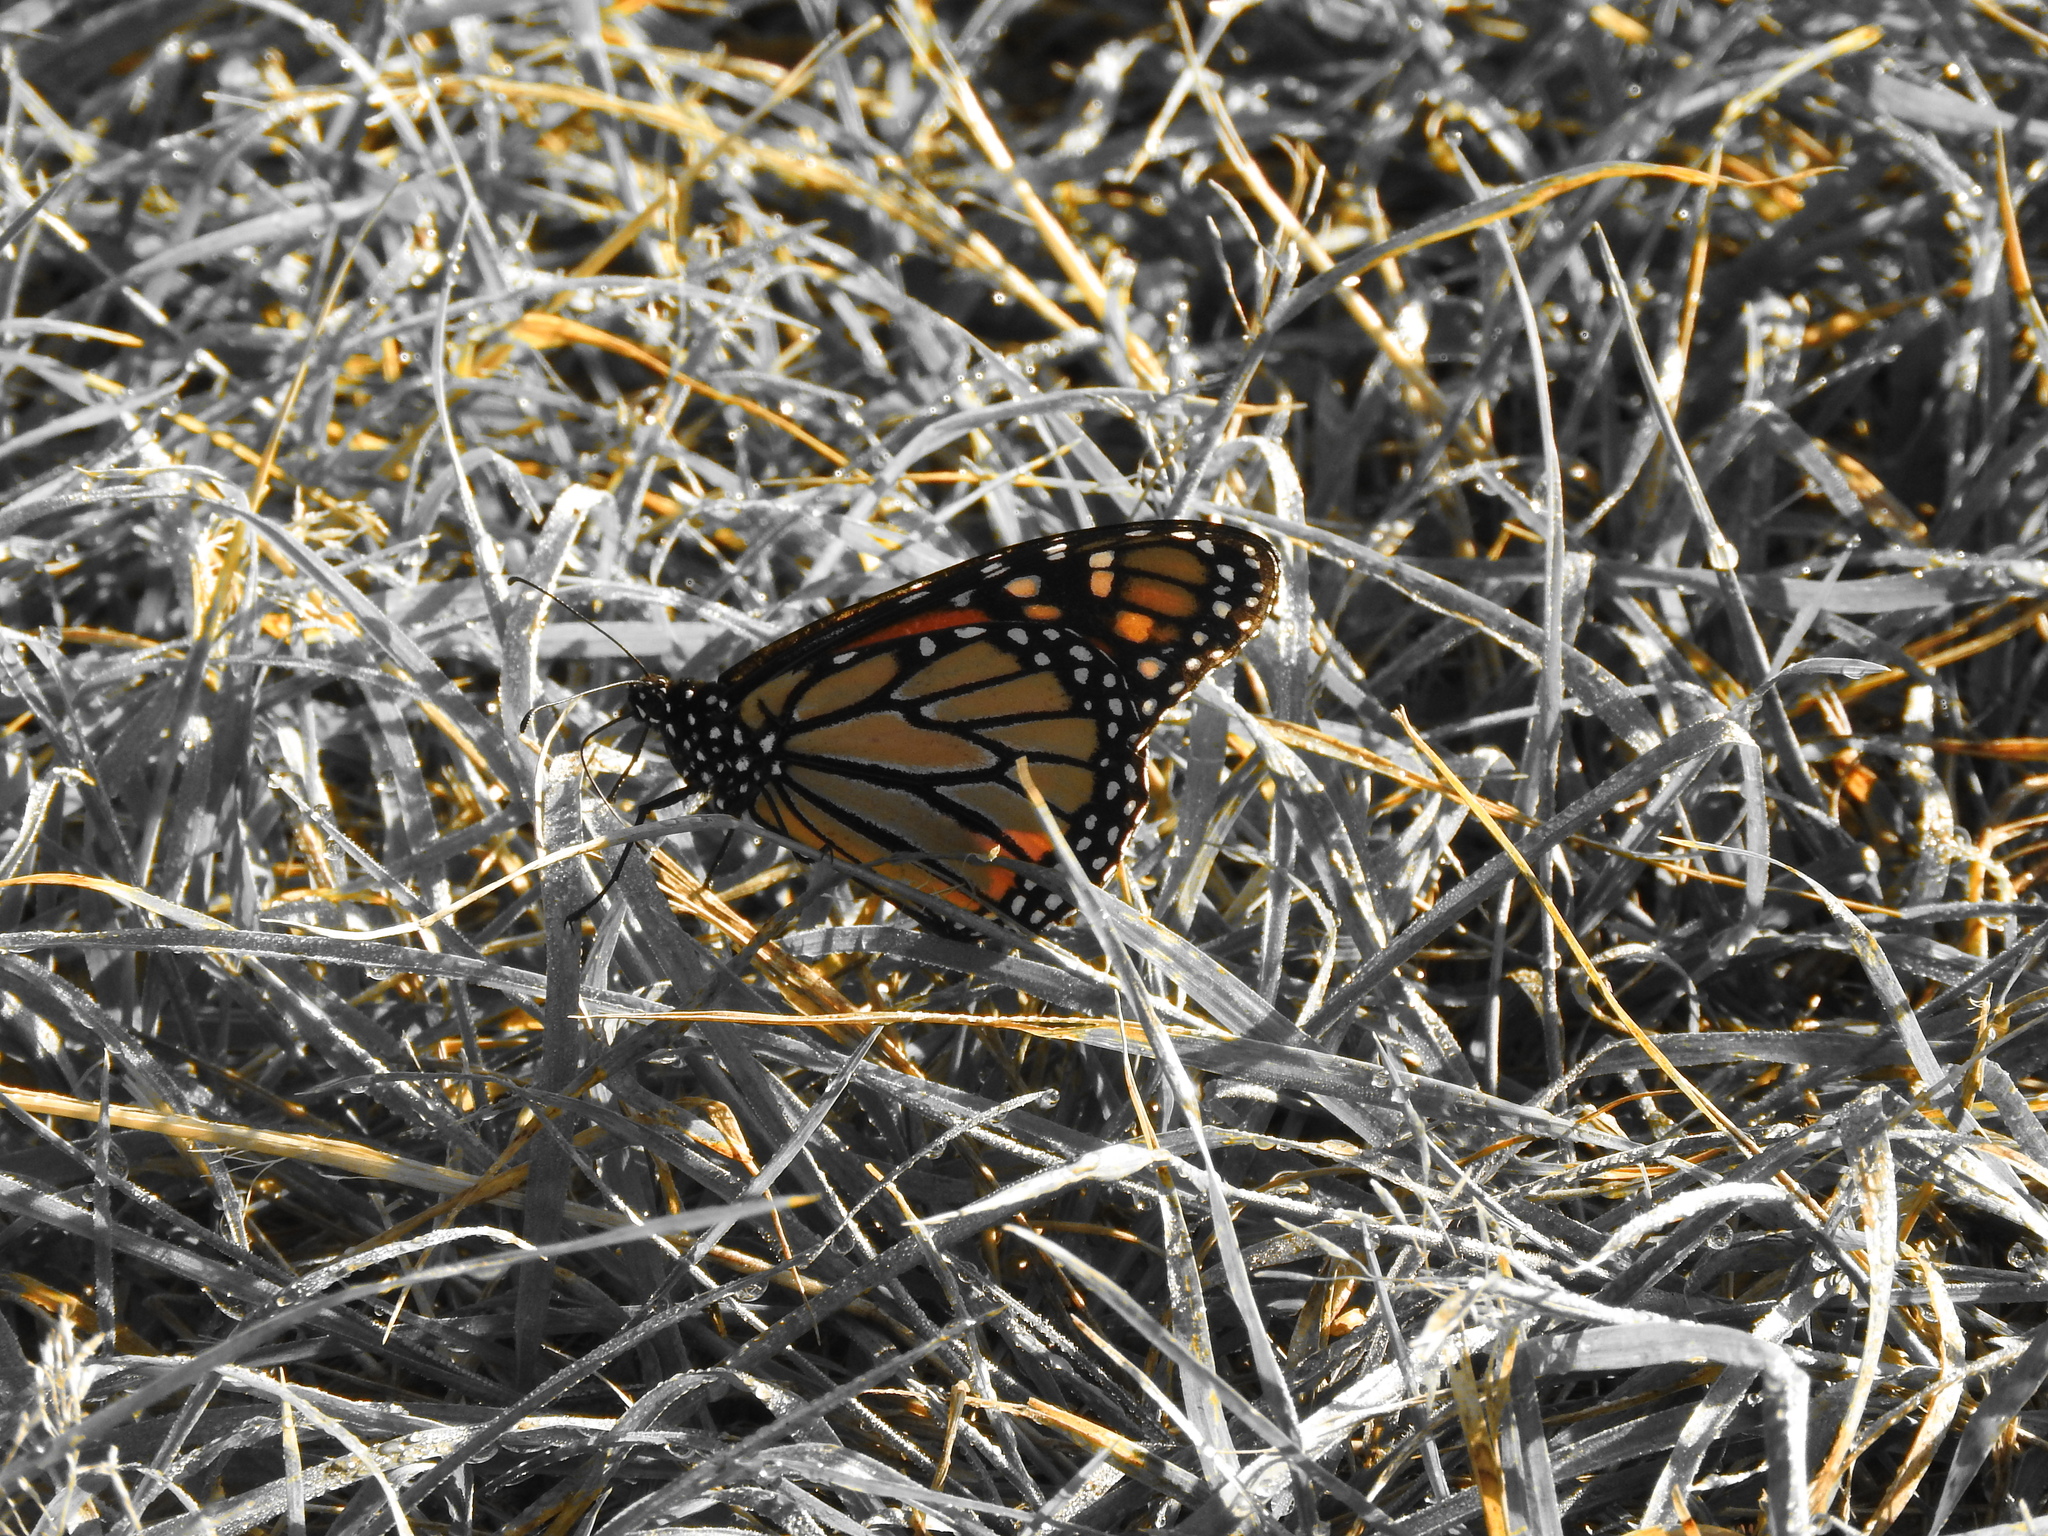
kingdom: Animalia
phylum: Arthropoda
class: Insecta
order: Lepidoptera
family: Nymphalidae
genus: Danaus
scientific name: Danaus plexippus
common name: Monarch
